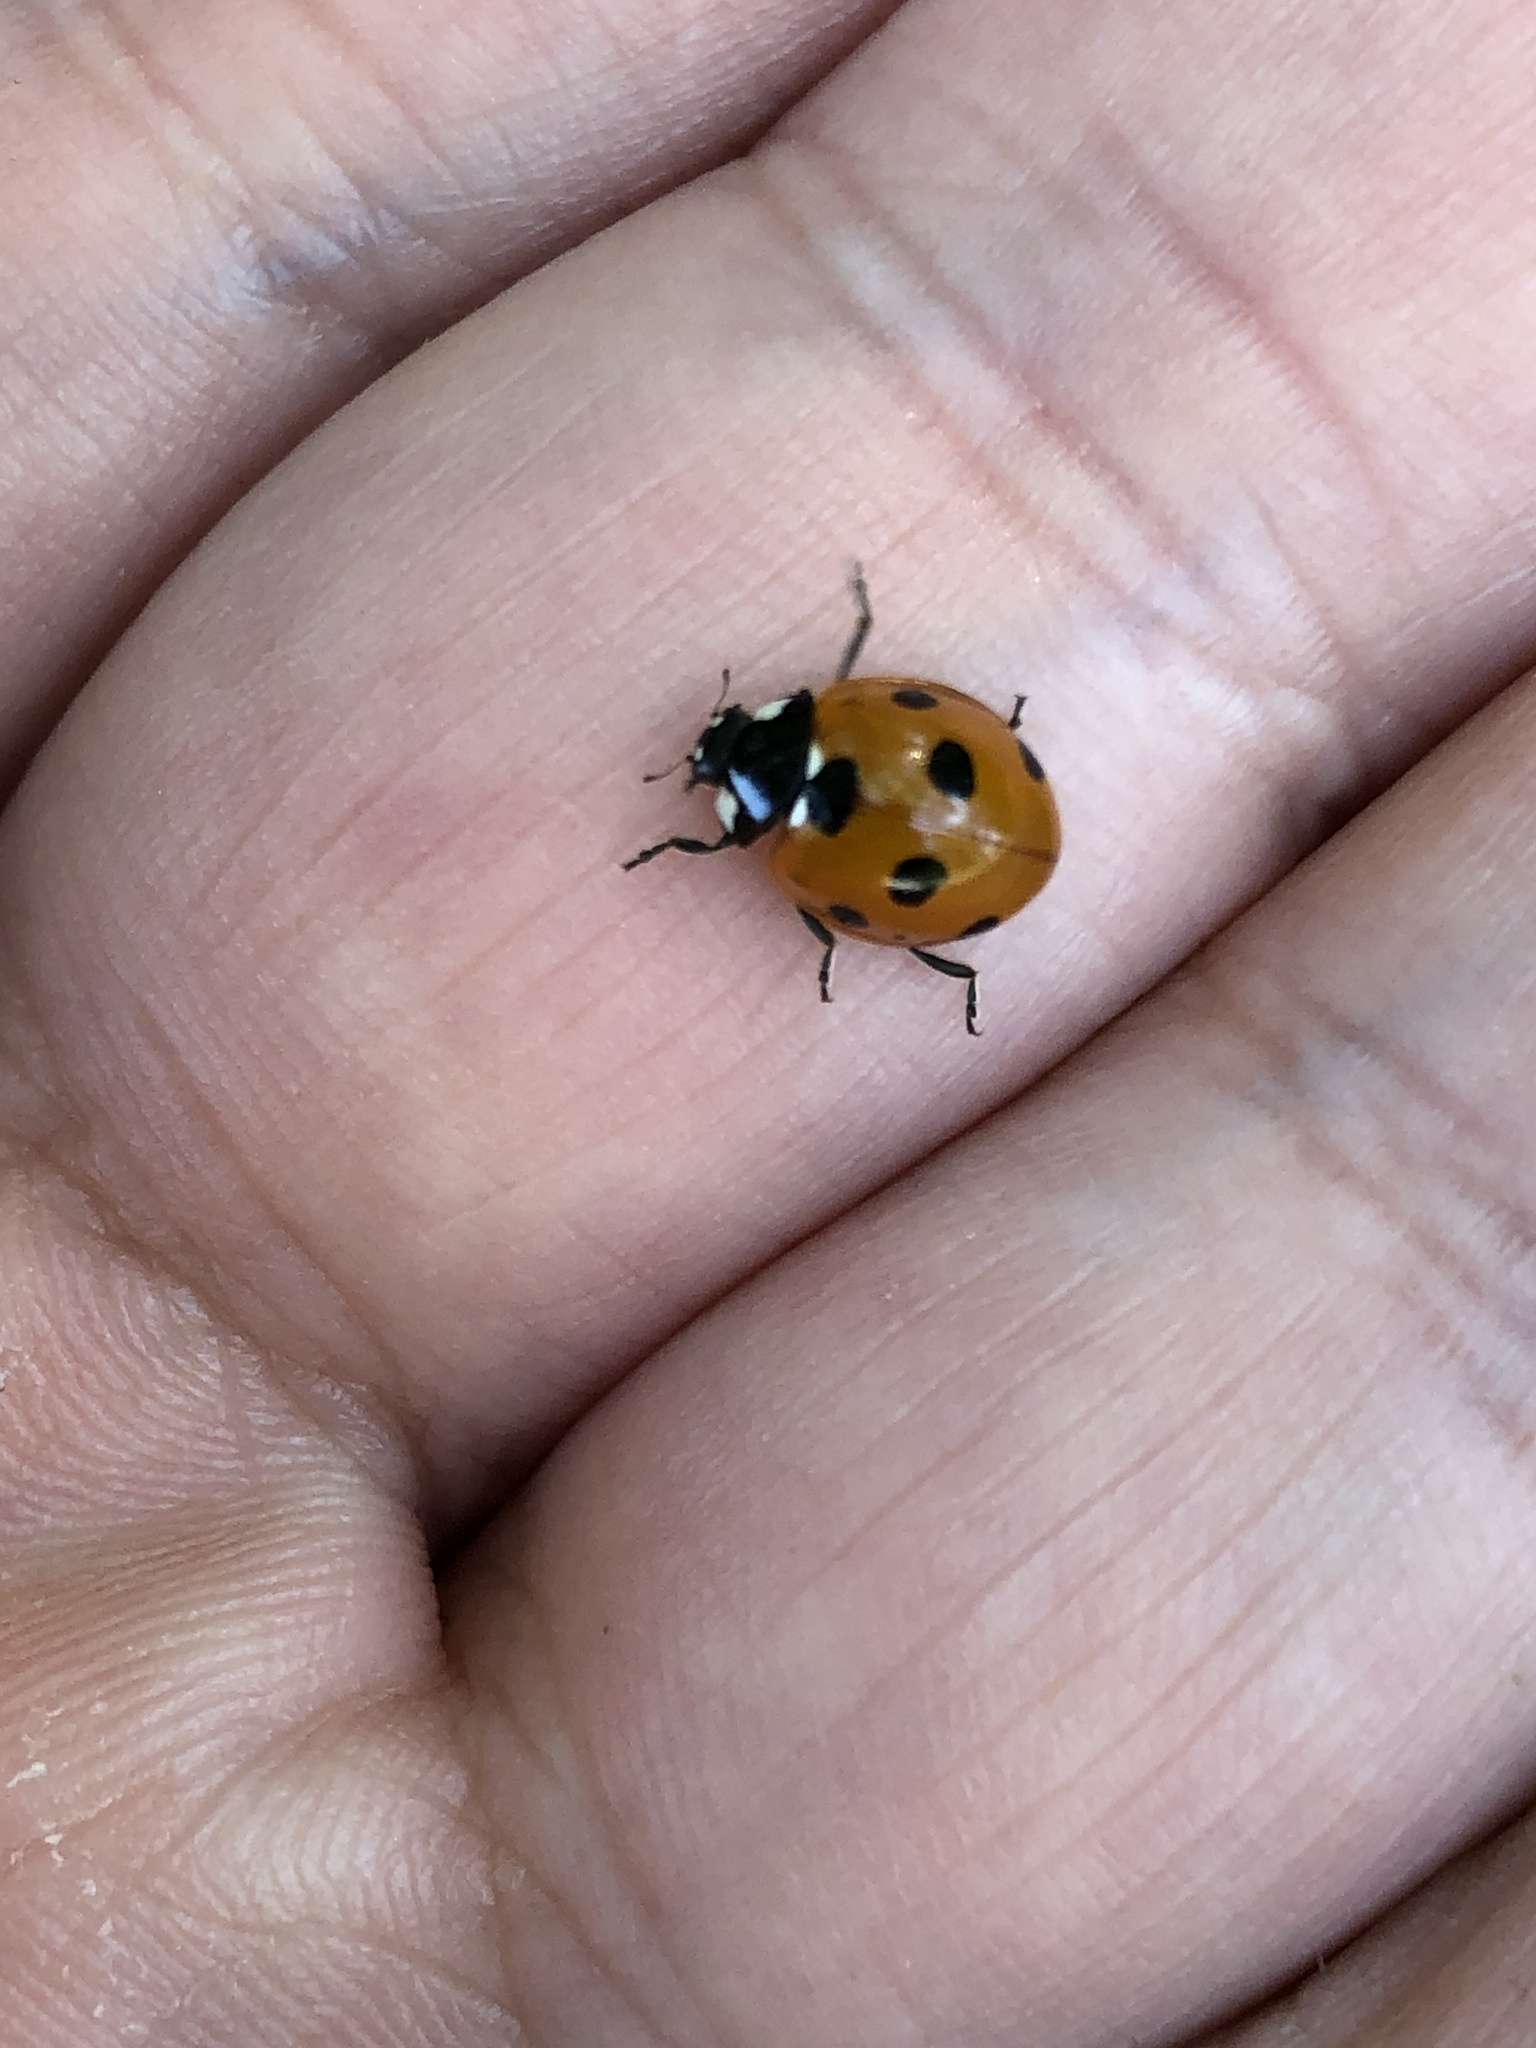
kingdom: Animalia
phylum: Arthropoda
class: Insecta
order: Coleoptera
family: Coccinellidae
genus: Coccinella
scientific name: Coccinella septempunctata
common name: Sevenspotted lady beetle
